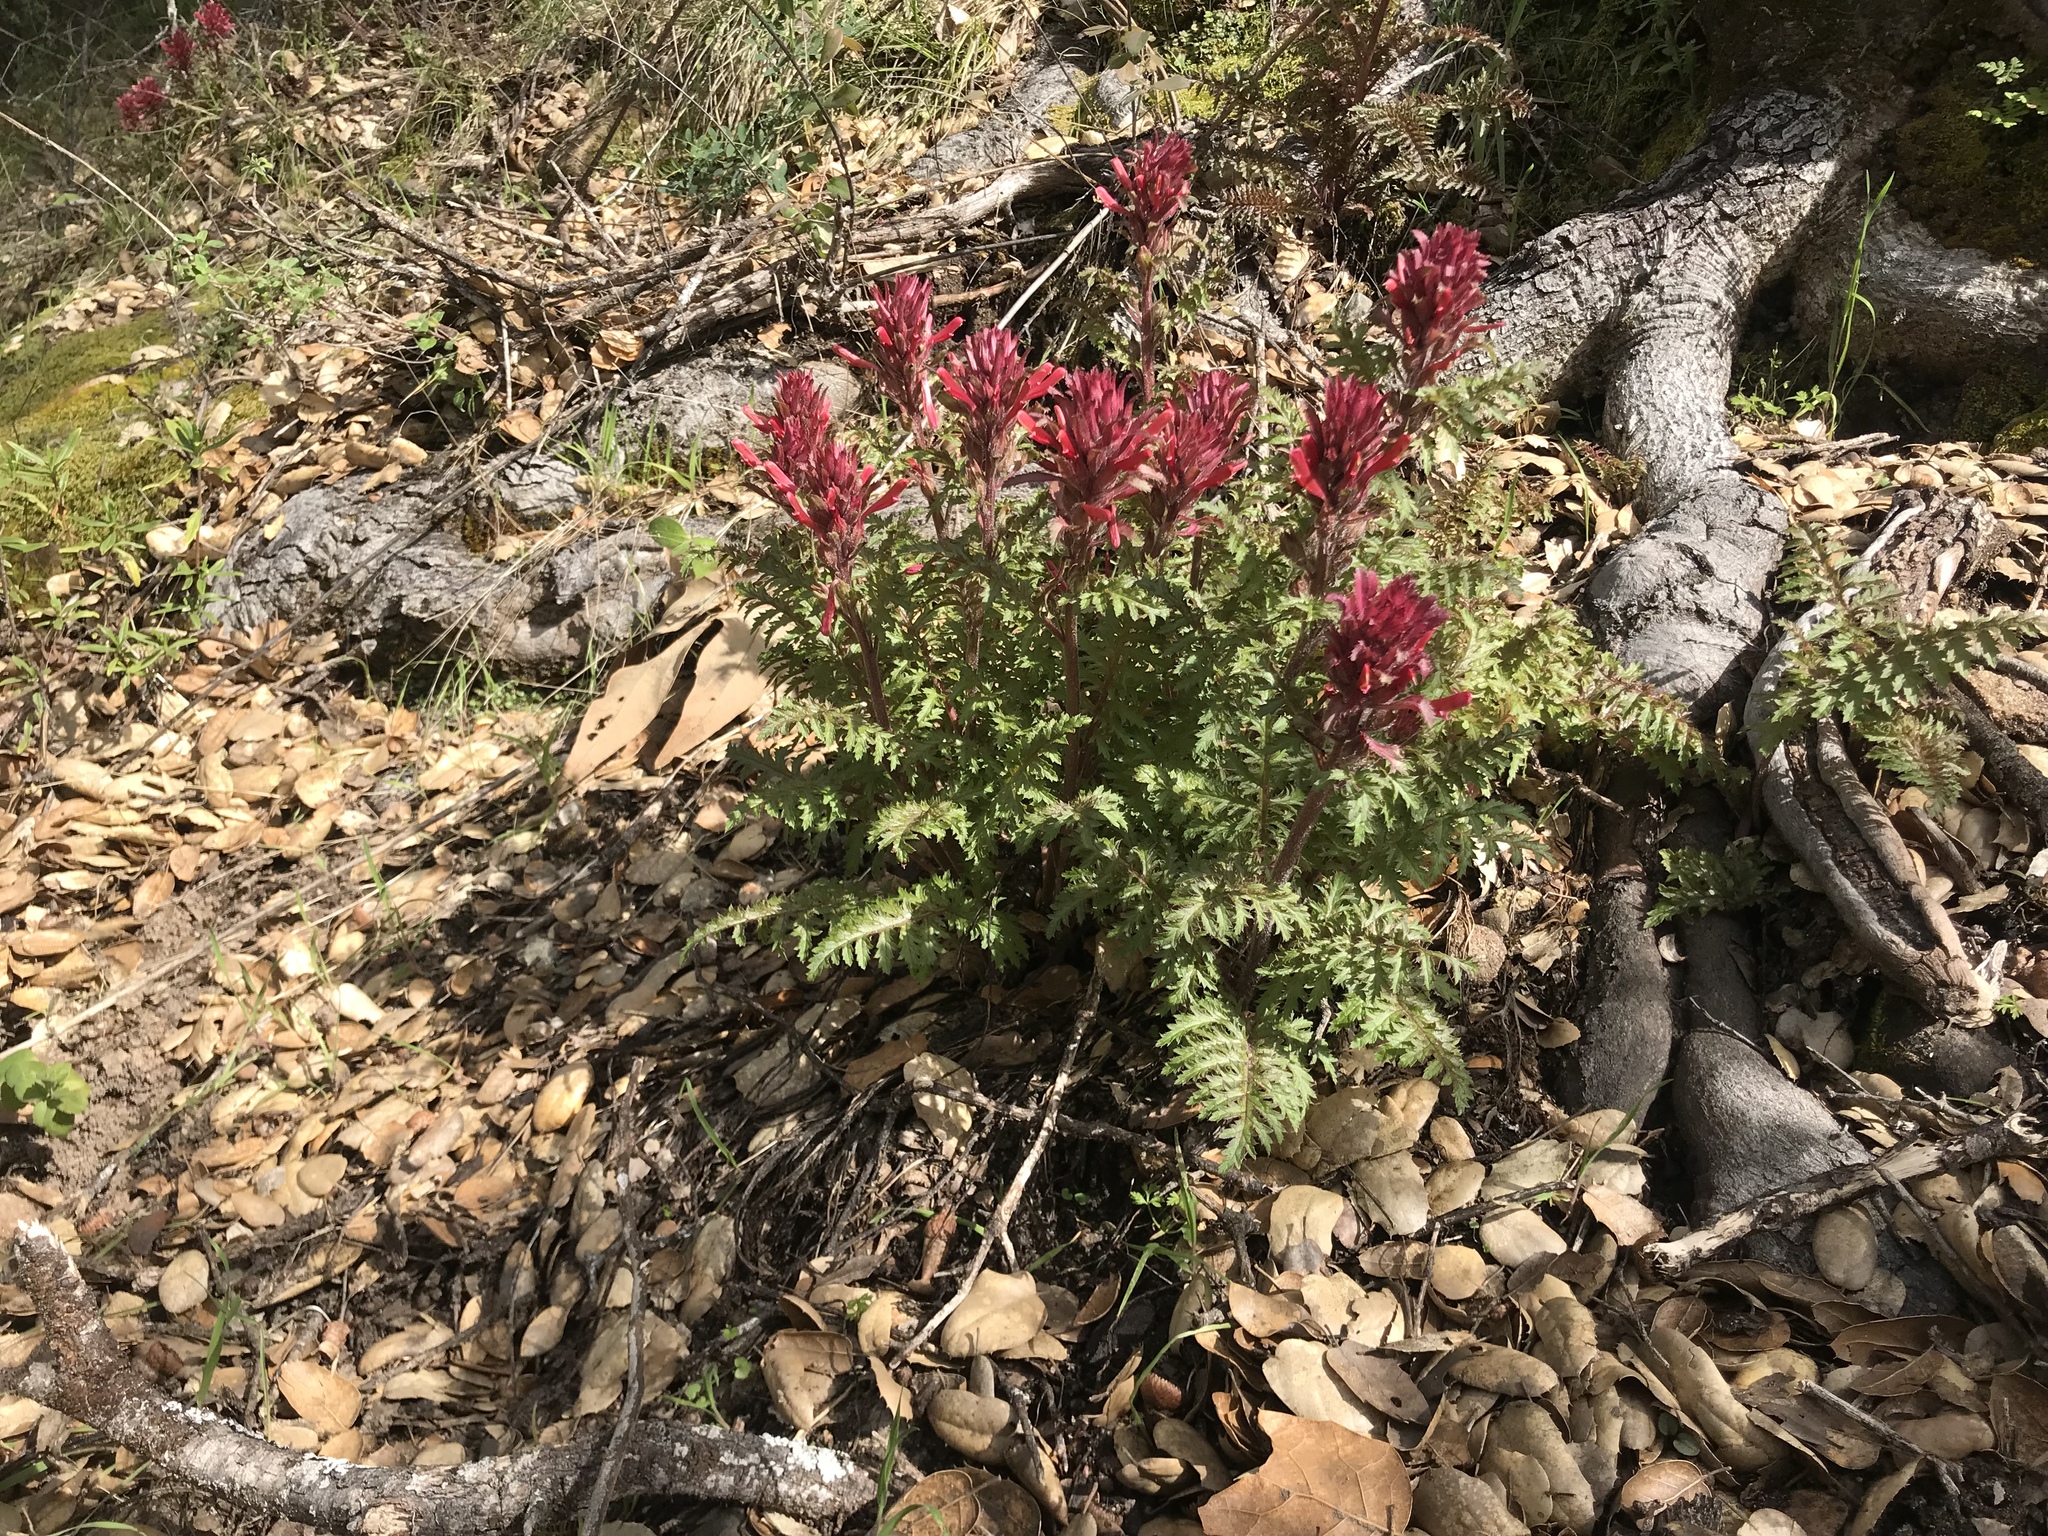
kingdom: Plantae
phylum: Tracheophyta
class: Magnoliopsida
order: Lamiales
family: Orobanchaceae
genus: Pedicularis
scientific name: Pedicularis densiflora
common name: Indian warrior
